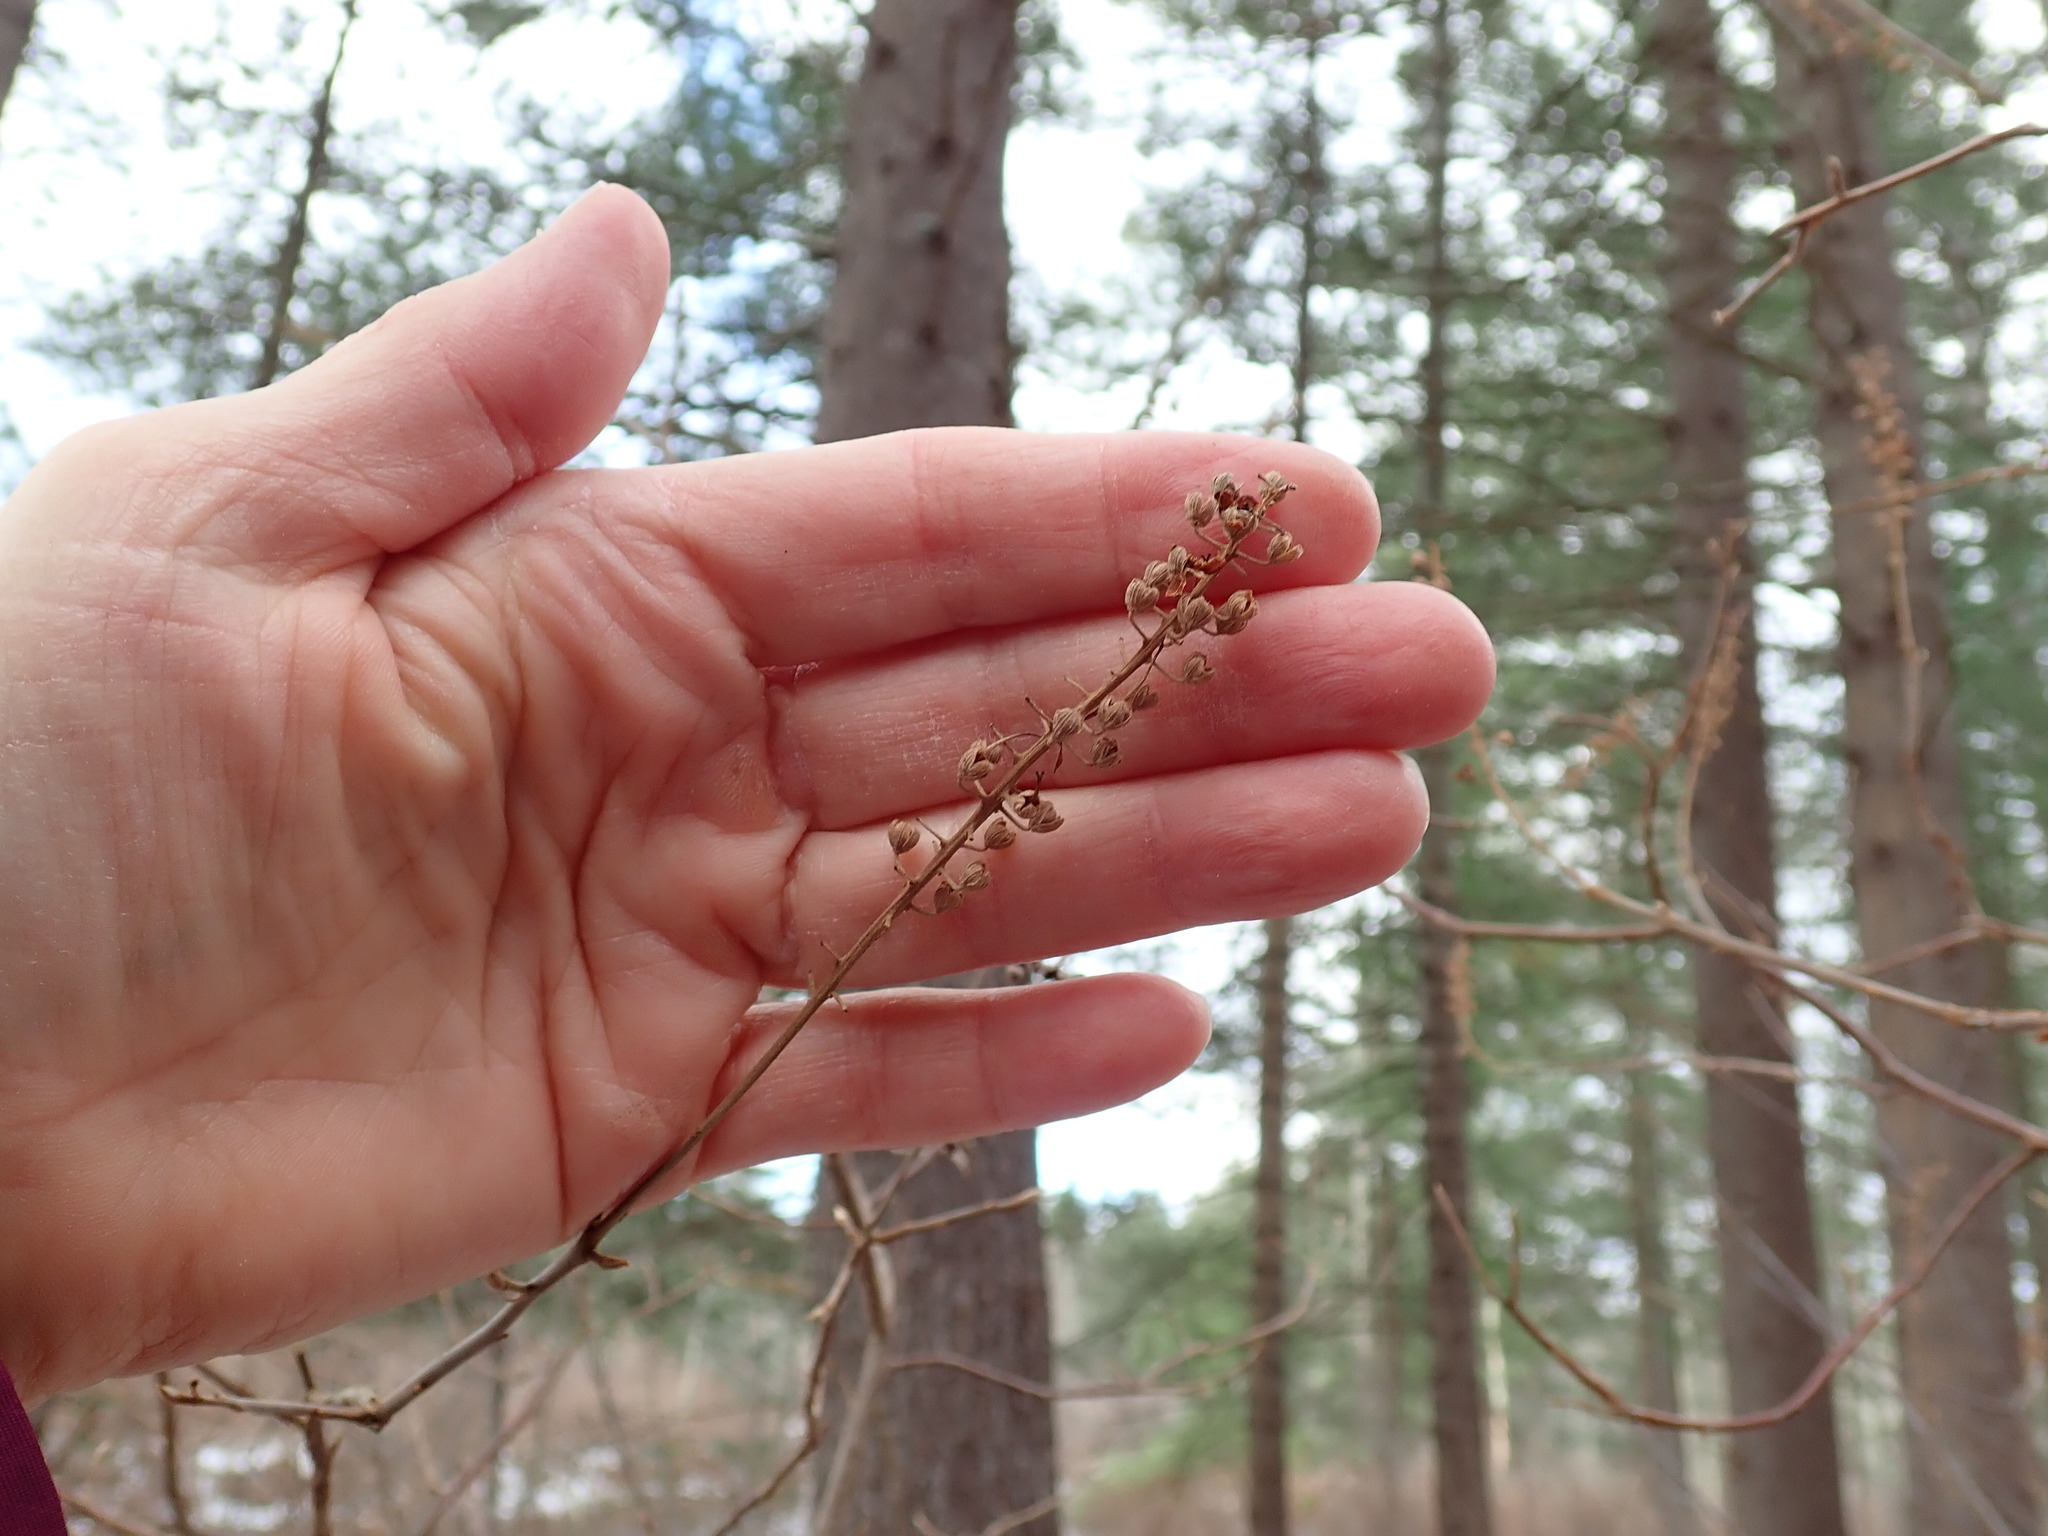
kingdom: Plantae
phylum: Tracheophyta
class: Magnoliopsida
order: Ericales
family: Clethraceae
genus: Clethra
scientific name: Clethra alnifolia
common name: Sweet pepperbush
